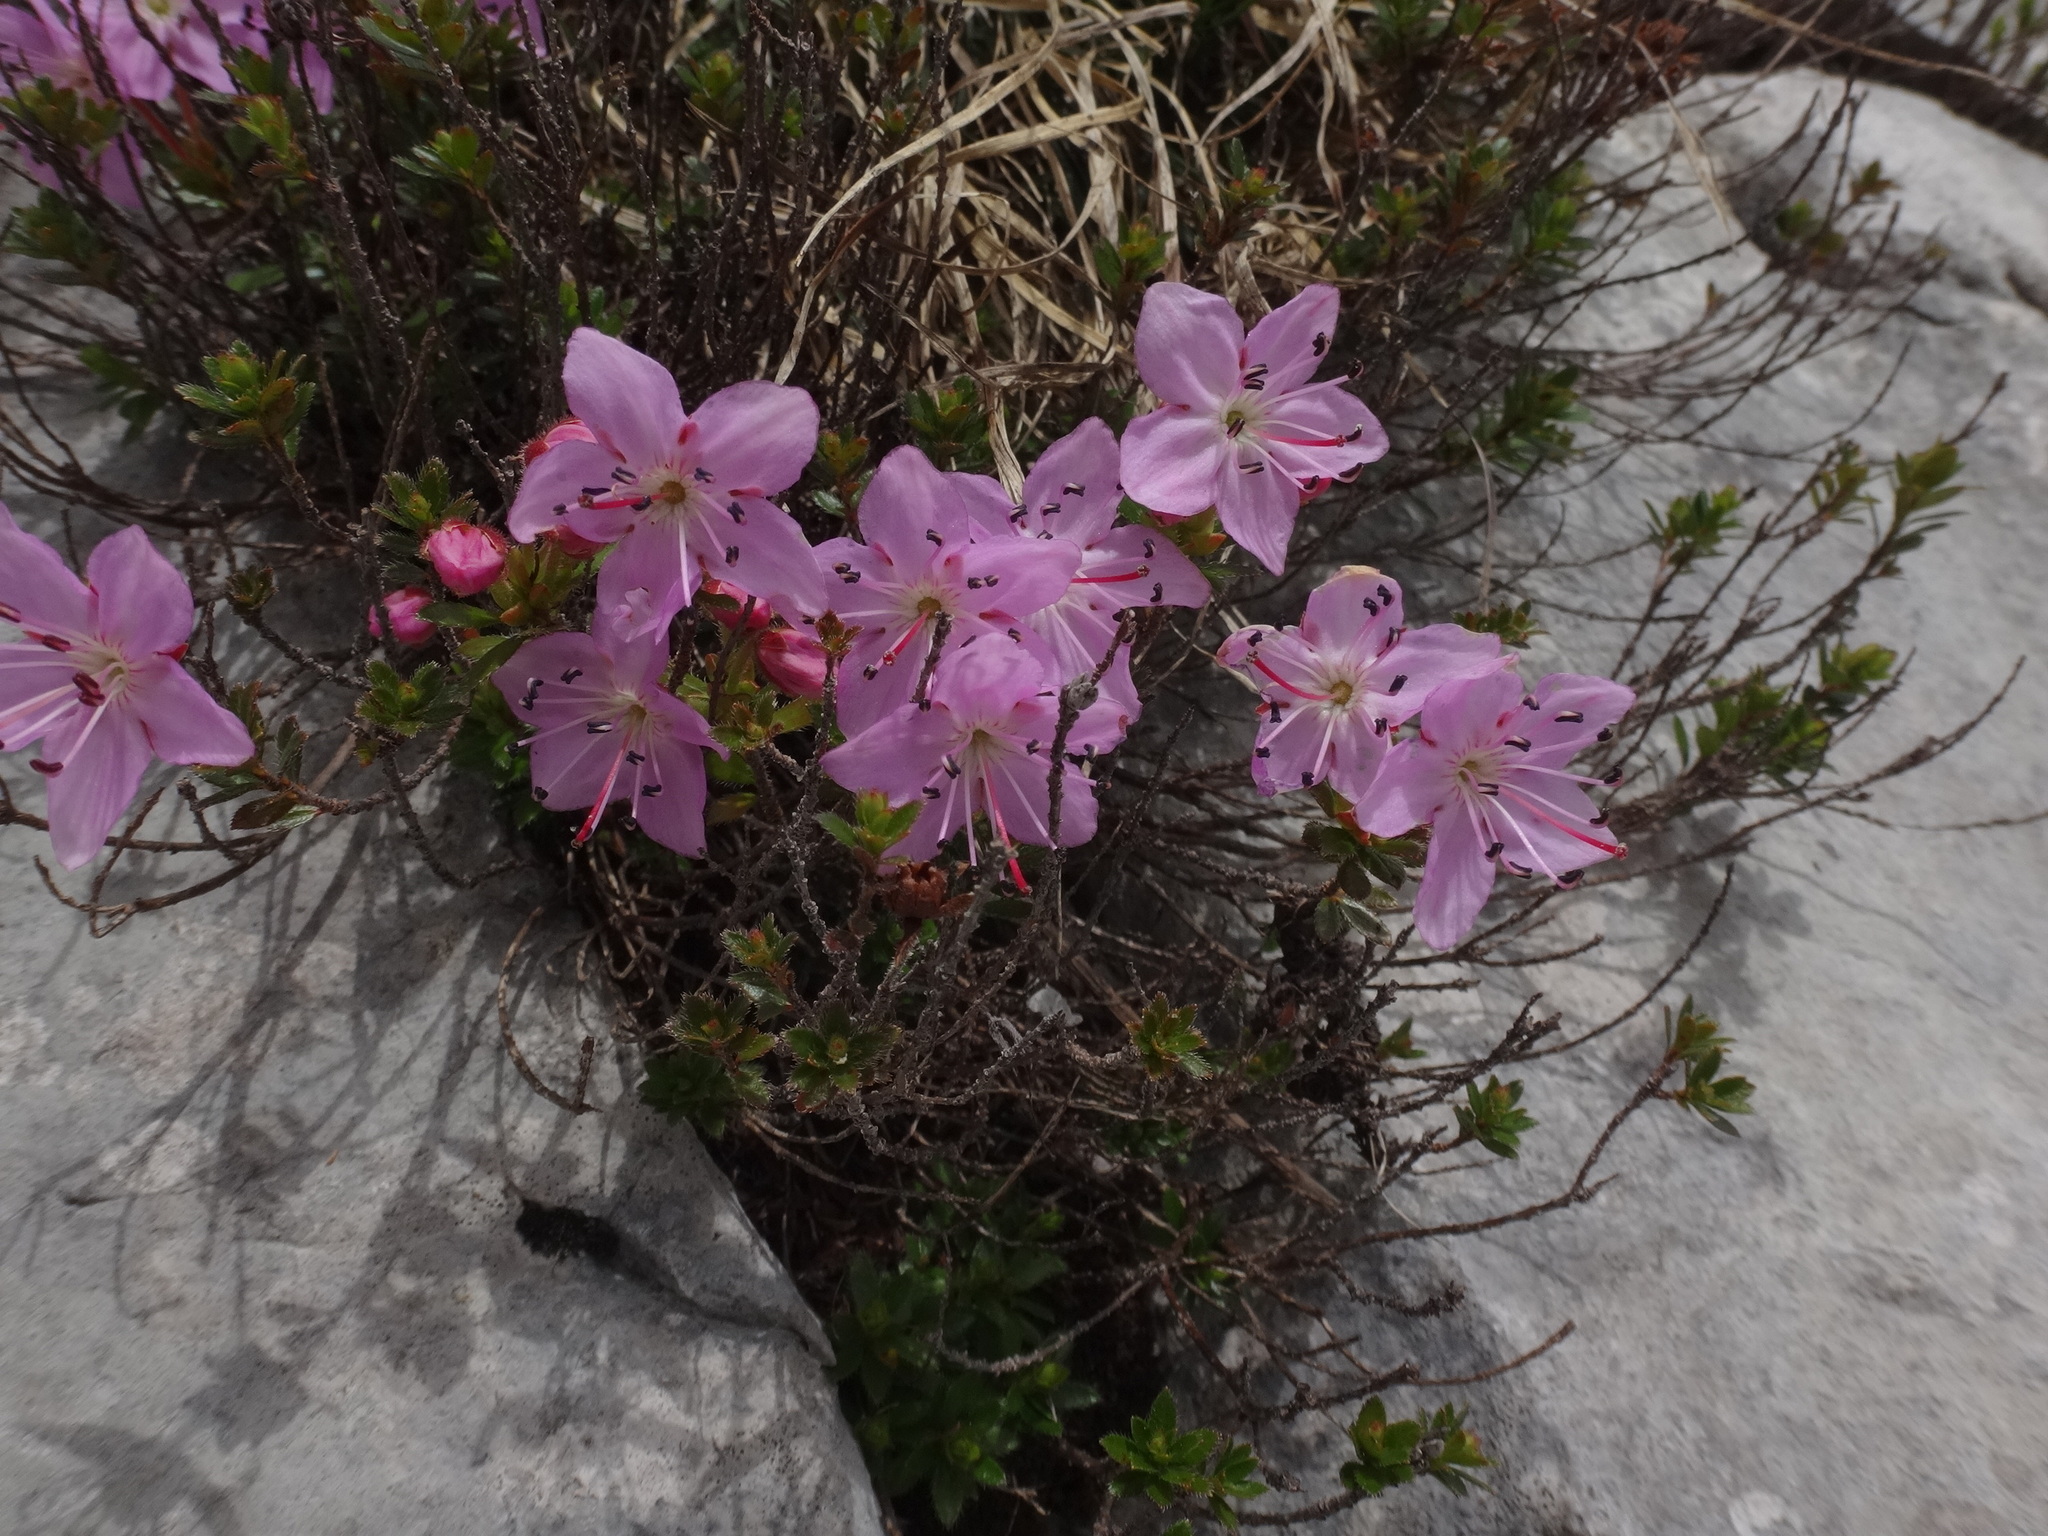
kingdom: Plantae
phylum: Tracheophyta
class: Magnoliopsida
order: Ericales
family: Ericaceae
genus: Rhodothamnus
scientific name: Rhodothamnus chamaecistus
